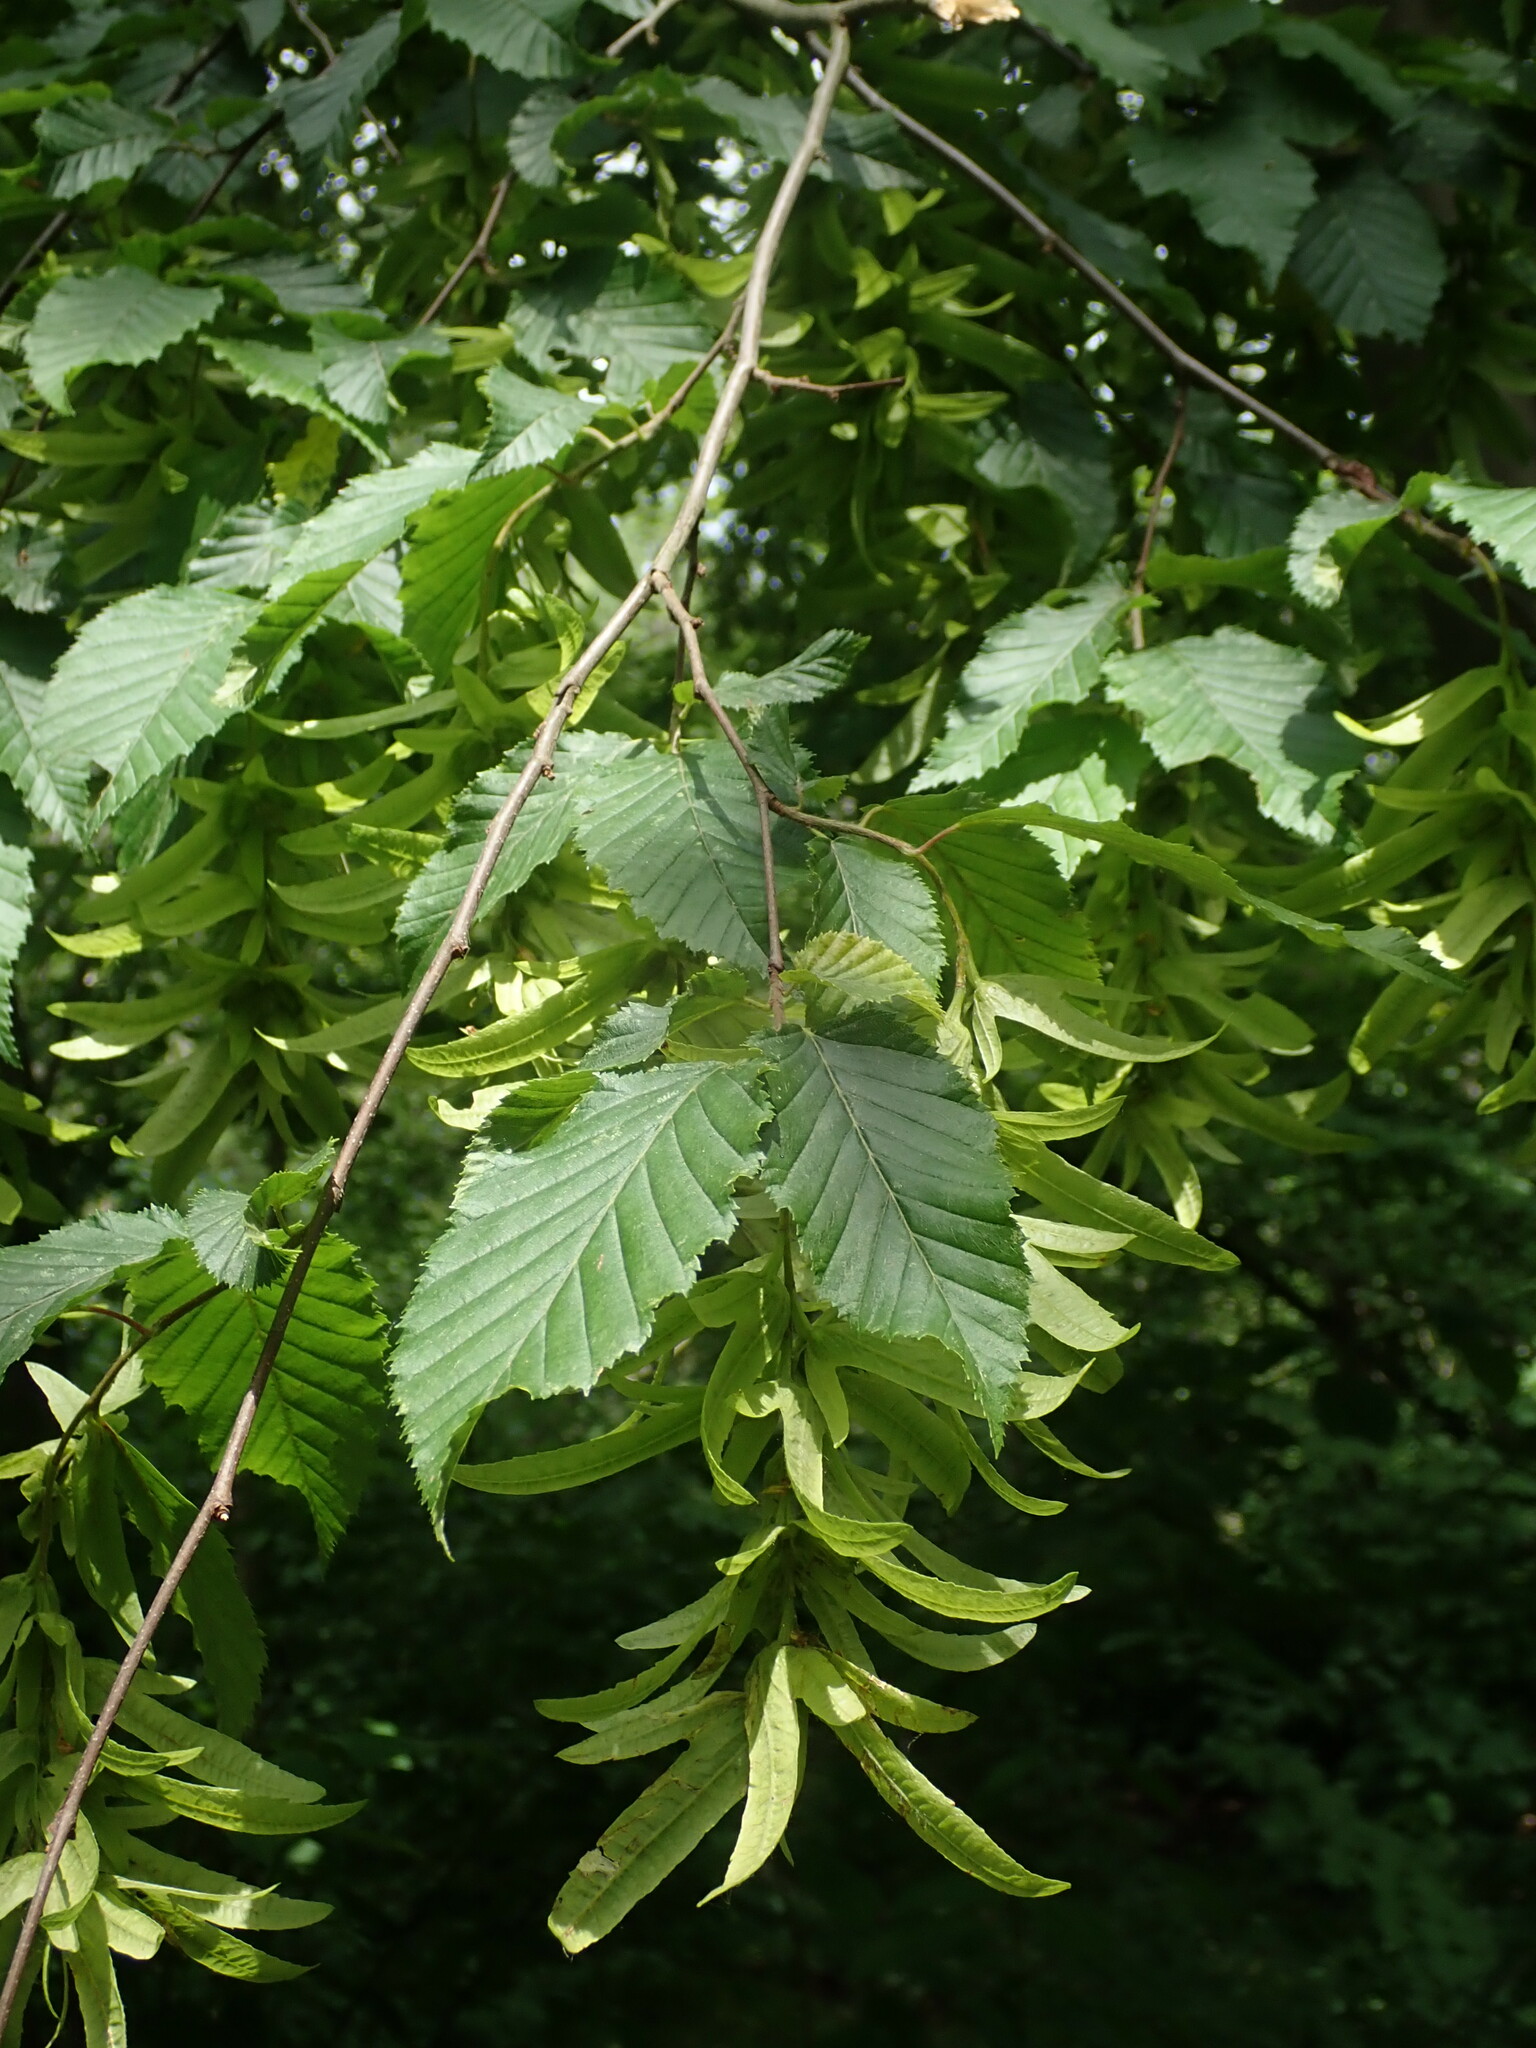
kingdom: Plantae
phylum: Tracheophyta
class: Magnoliopsida
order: Fagales
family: Betulaceae
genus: Carpinus
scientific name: Carpinus betulus
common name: Hornbeam
